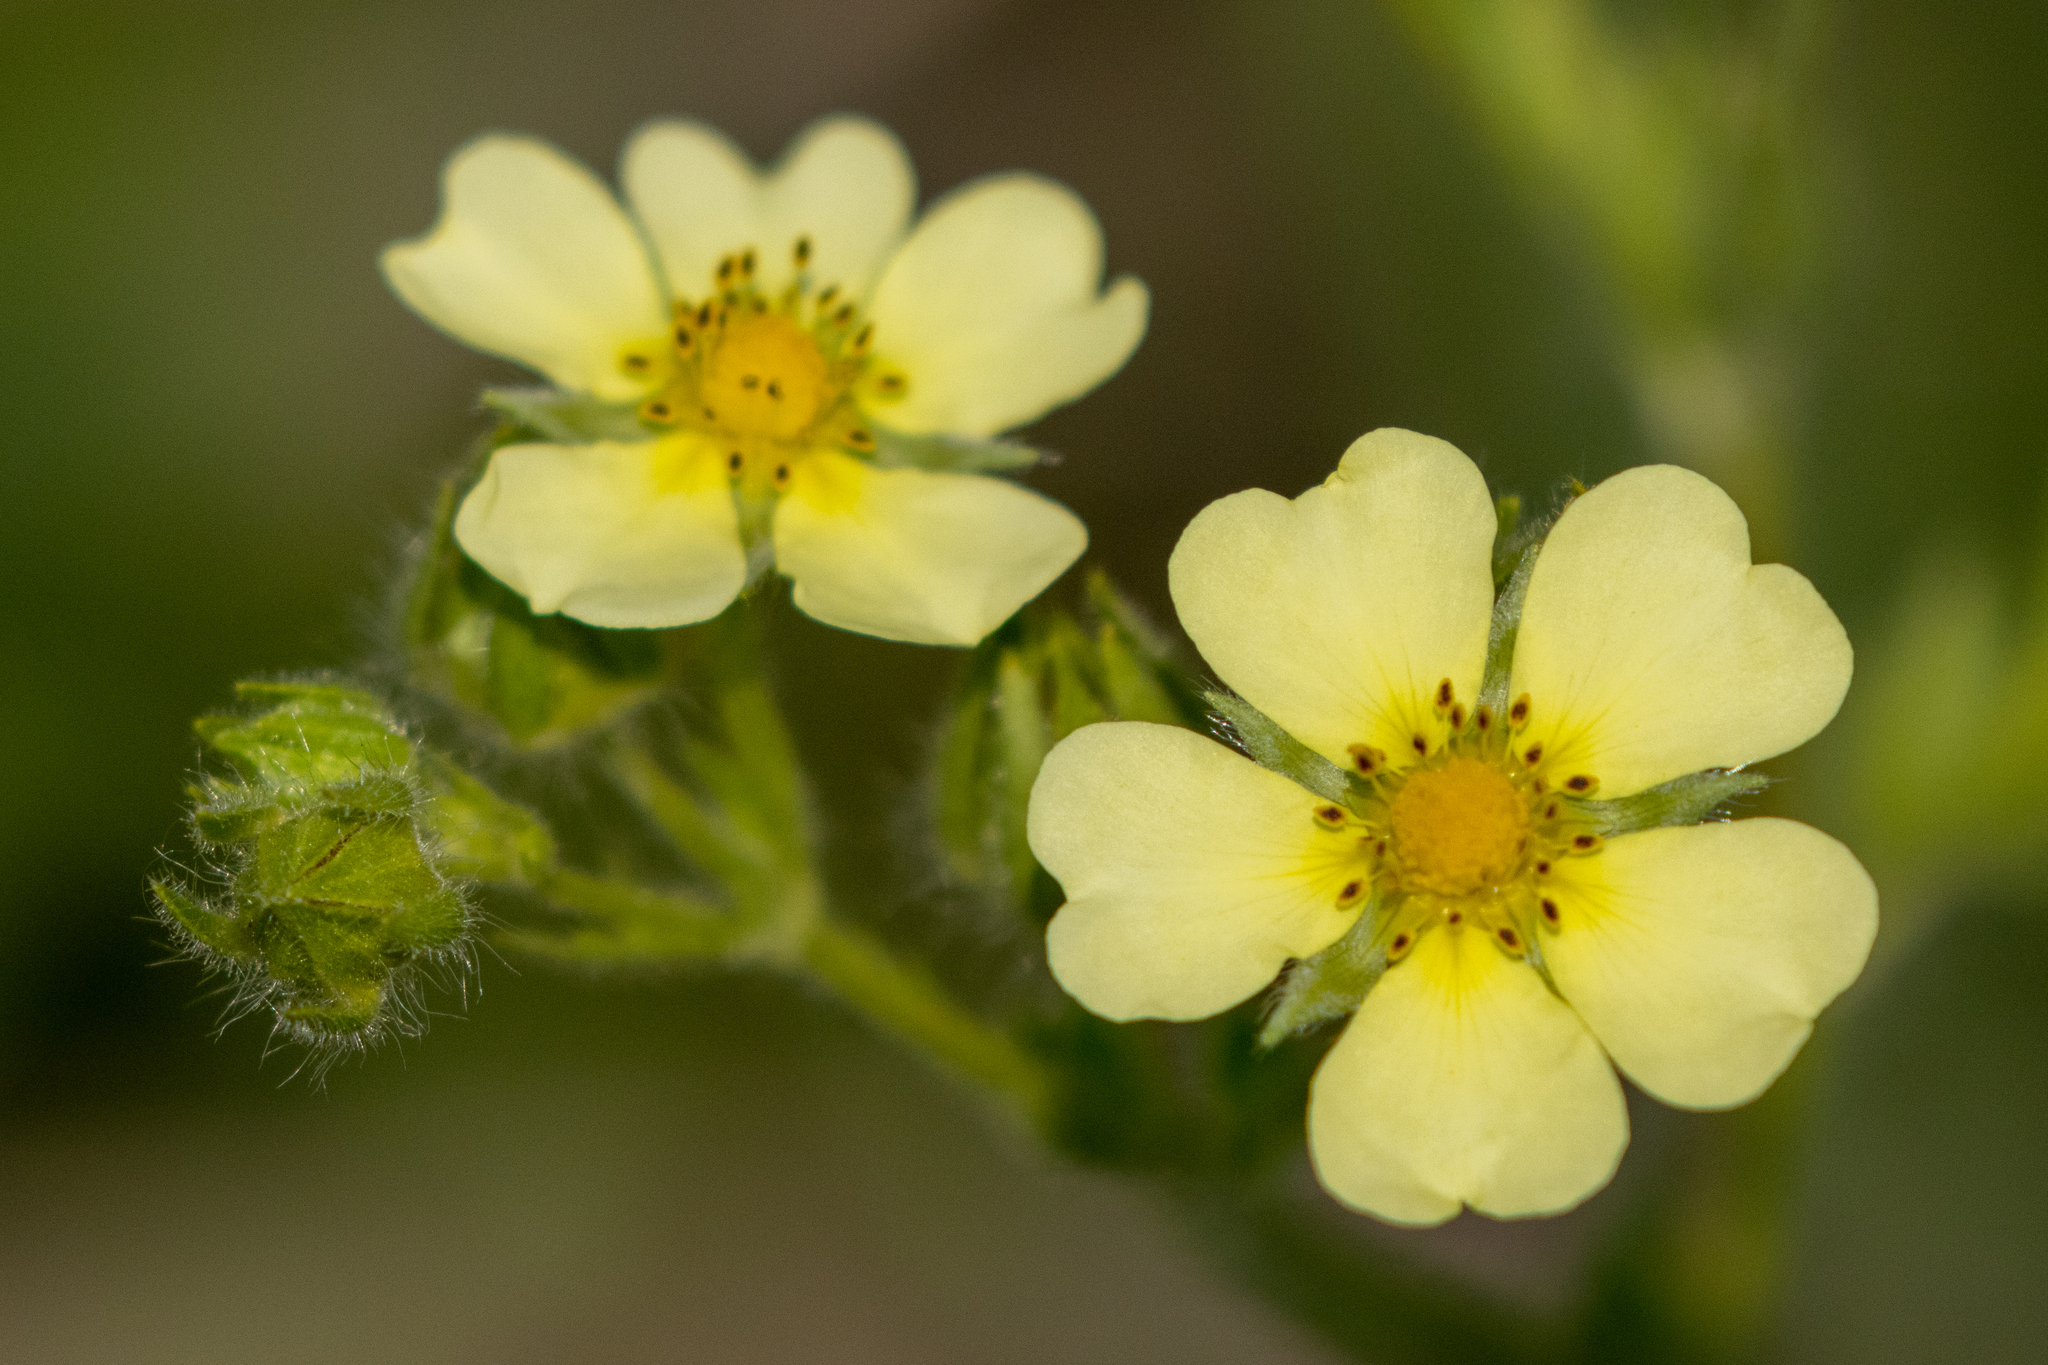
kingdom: Plantae
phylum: Tracheophyta
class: Magnoliopsida
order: Rosales
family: Rosaceae
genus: Potentilla
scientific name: Potentilla recta
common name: Sulphur cinquefoil
